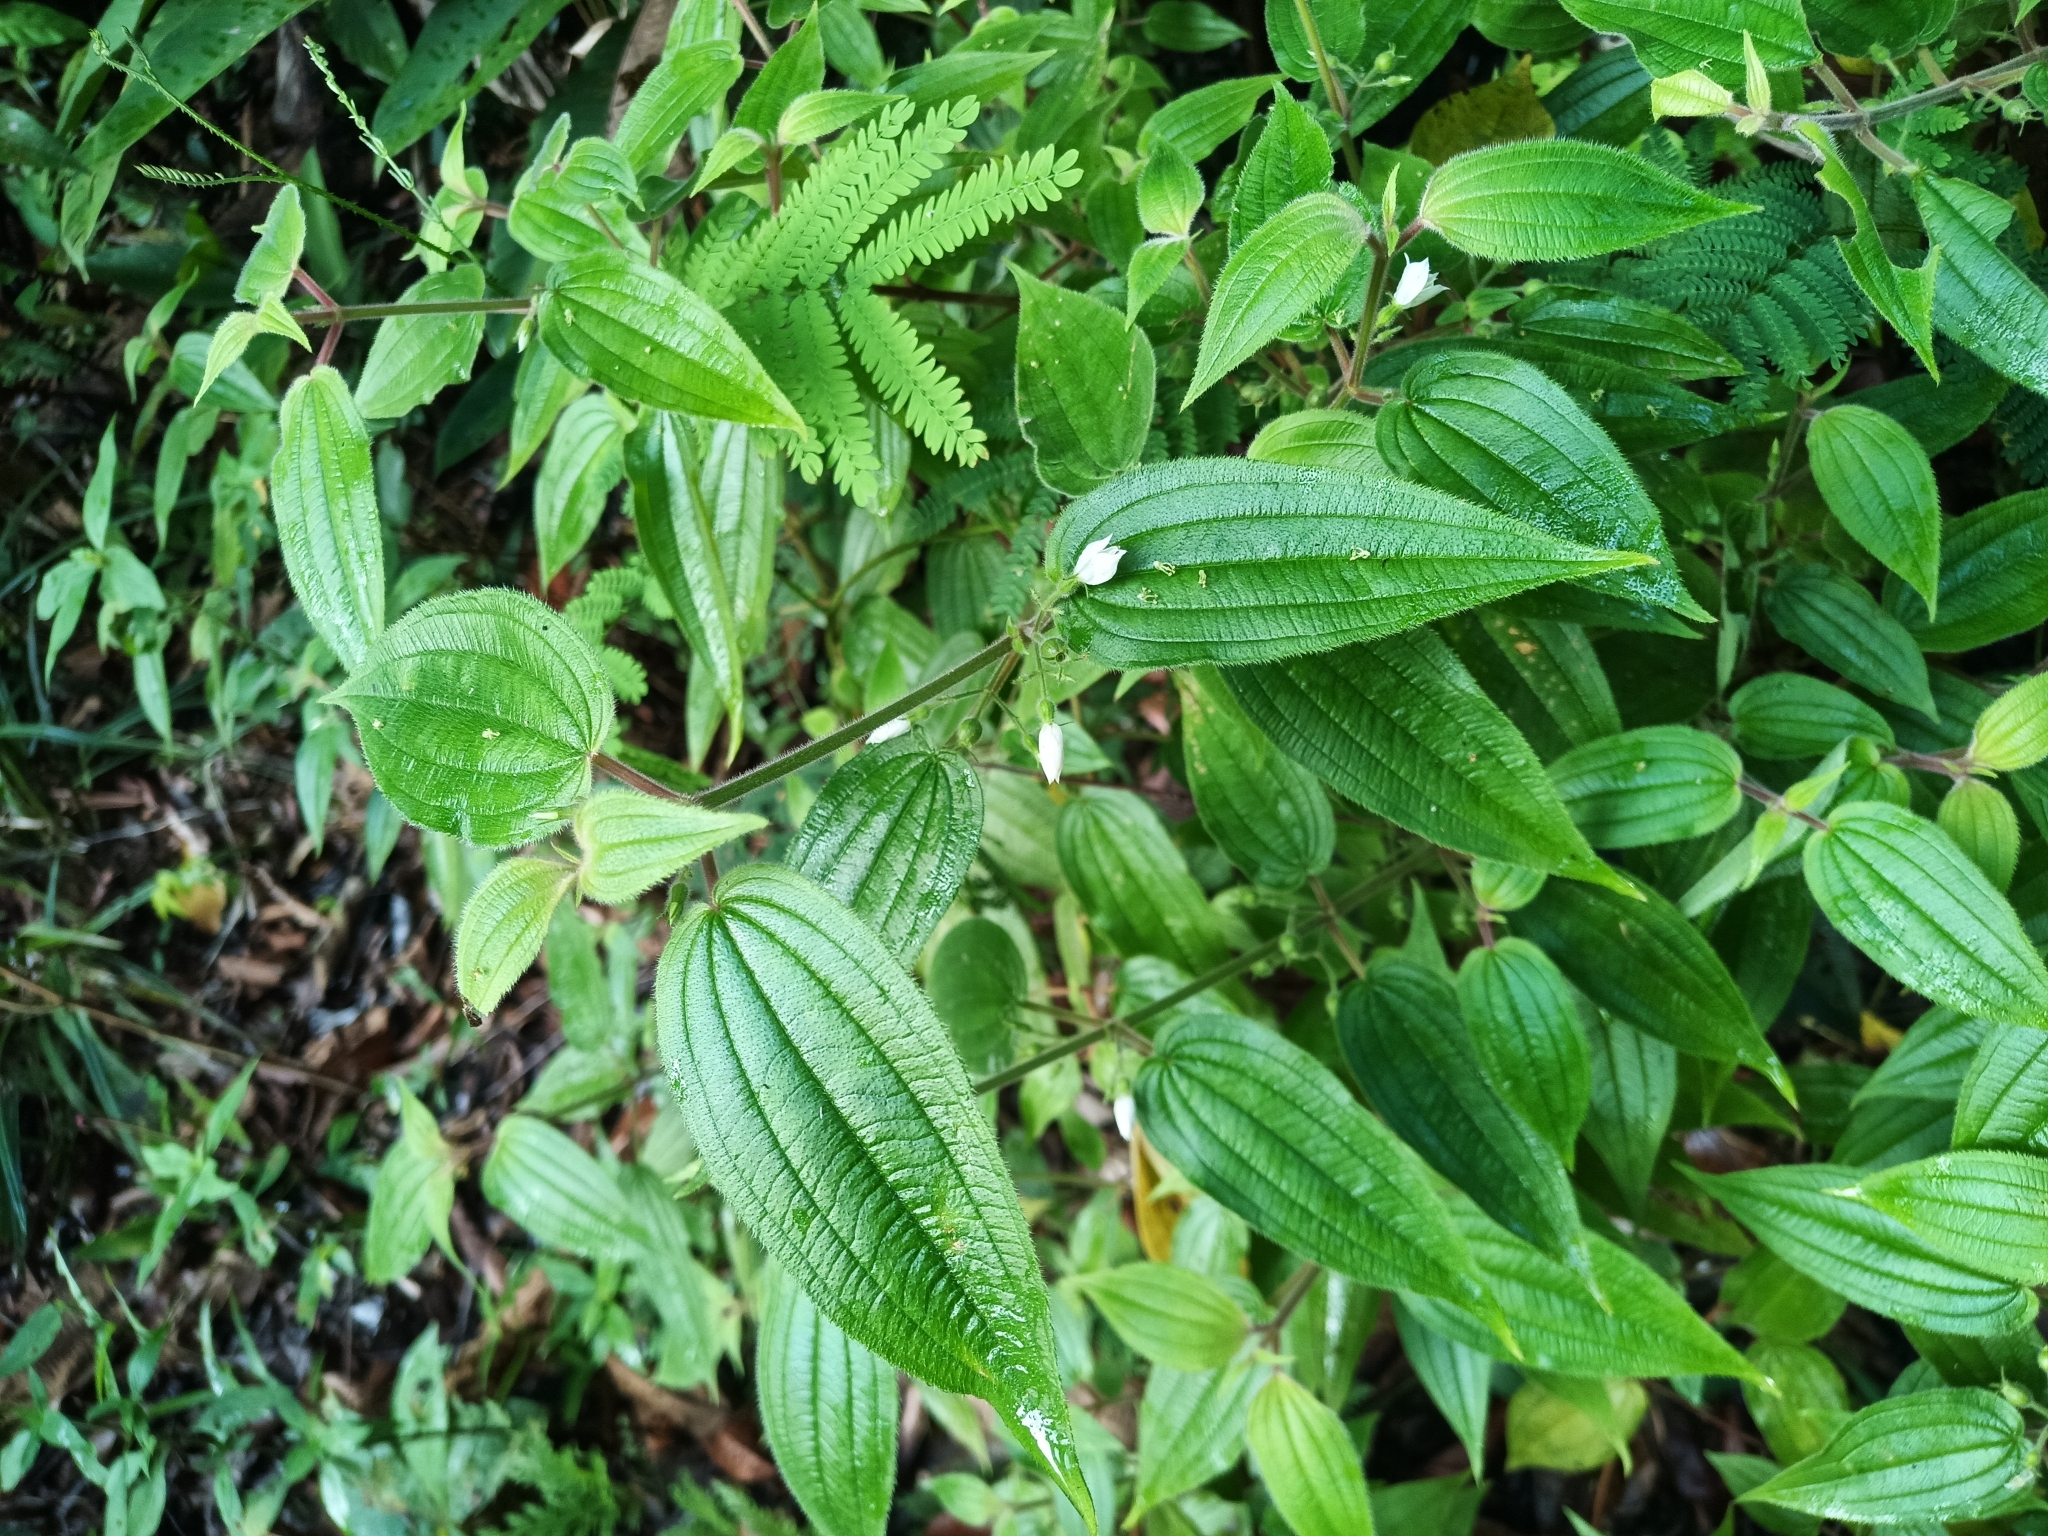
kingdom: Plantae
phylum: Tracheophyta
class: Magnoliopsida
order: Myrtales
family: Melastomataceae
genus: Pseudoernestia
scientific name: Pseudoernestia glandulosa
